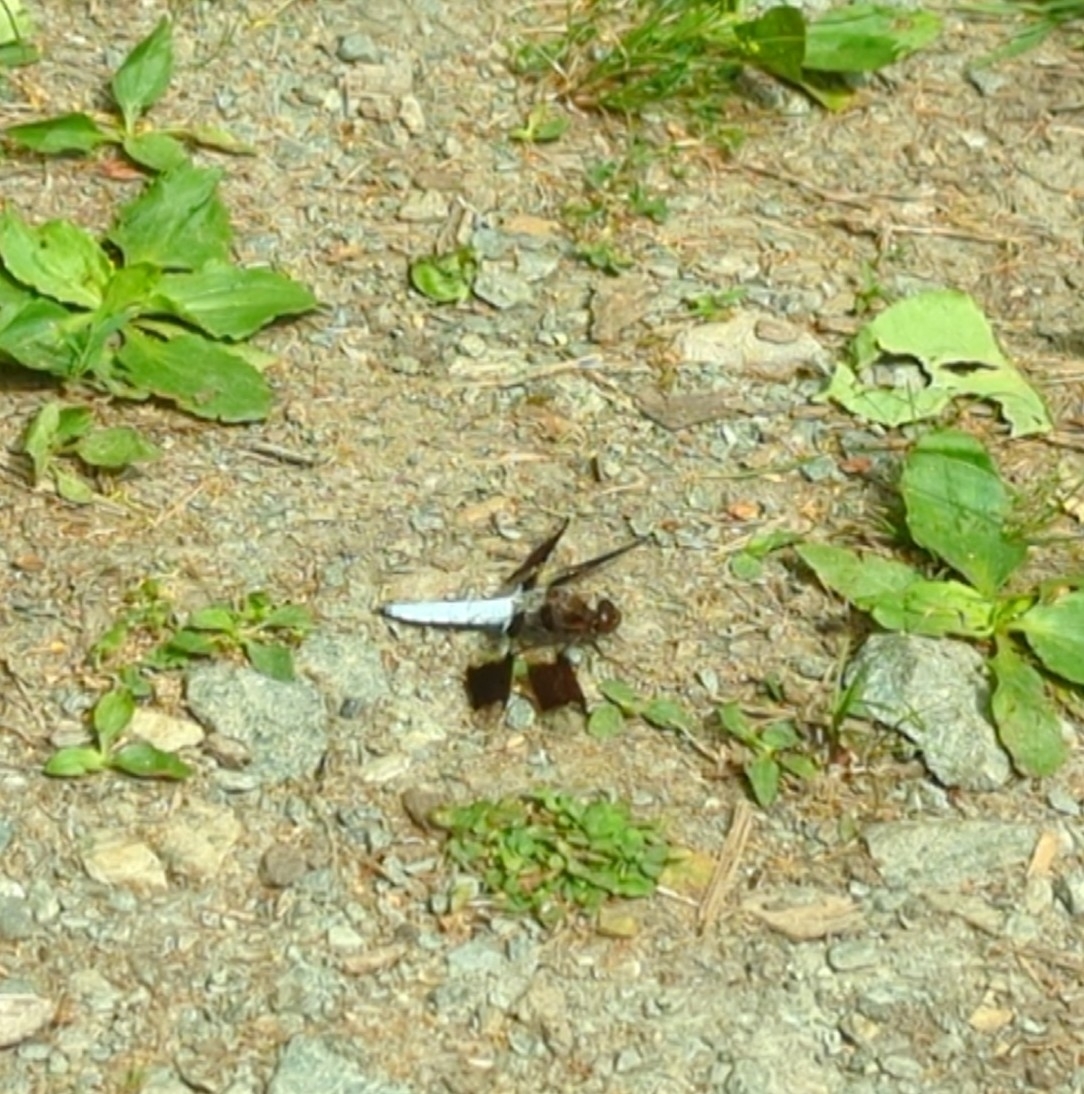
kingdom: Animalia
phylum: Arthropoda
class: Insecta
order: Odonata
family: Libellulidae
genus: Plathemis
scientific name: Plathemis lydia
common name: Common whitetail
